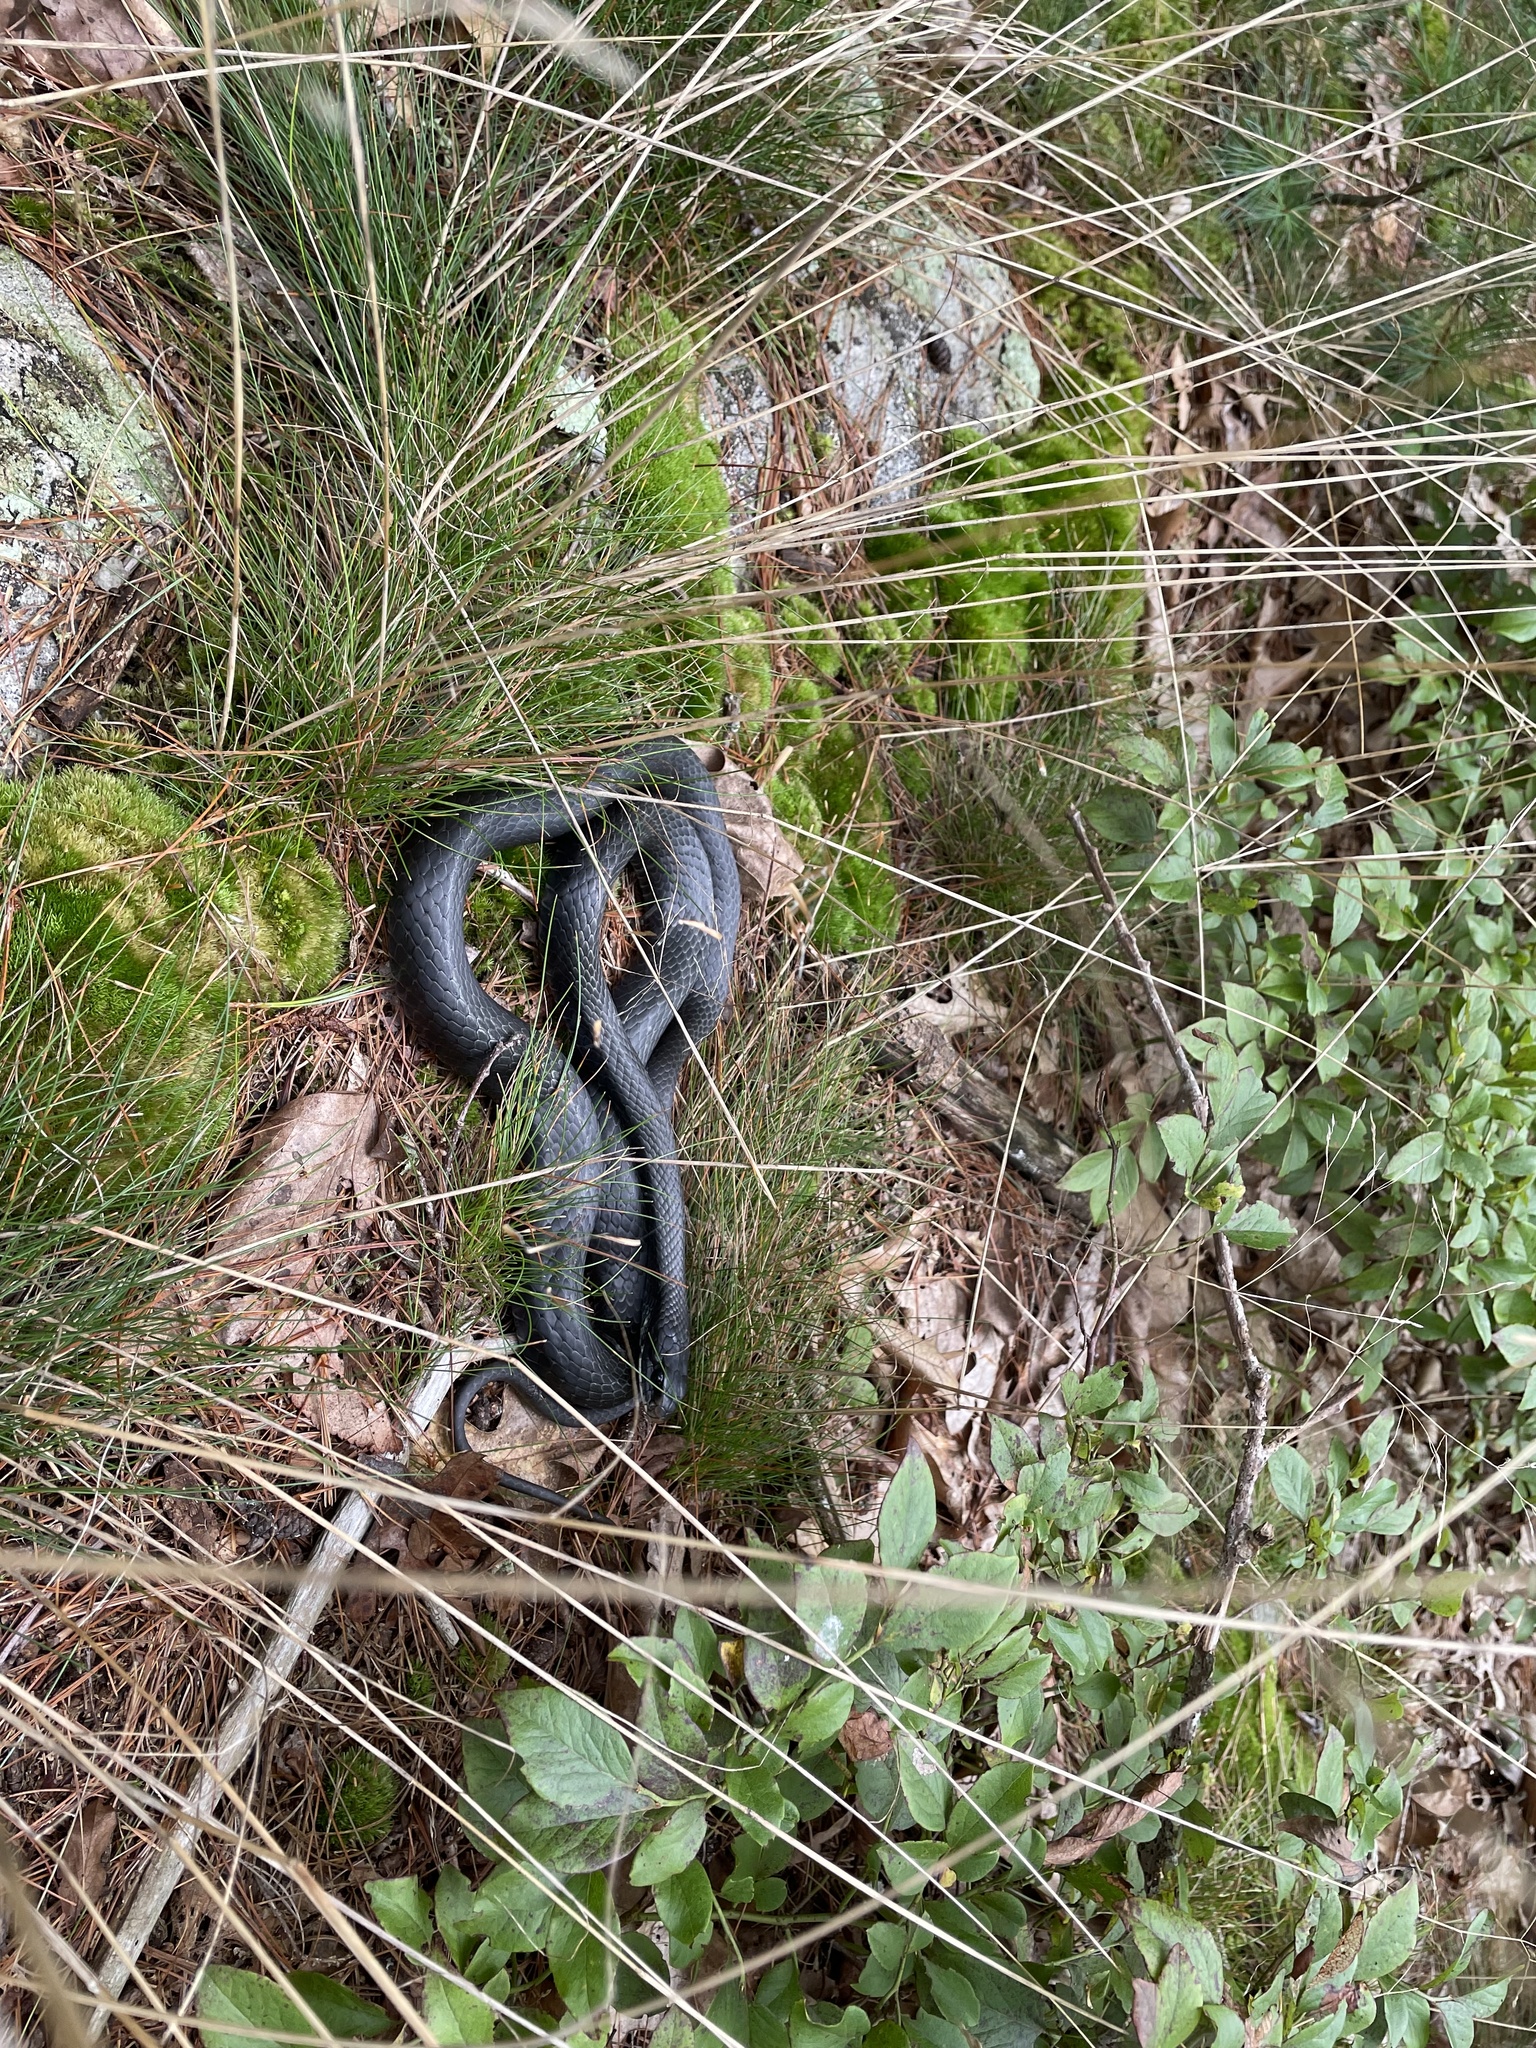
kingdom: Animalia
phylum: Chordata
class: Squamata
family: Colubridae
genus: Coluber
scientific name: Coluber constrictor
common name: Eastern racer
